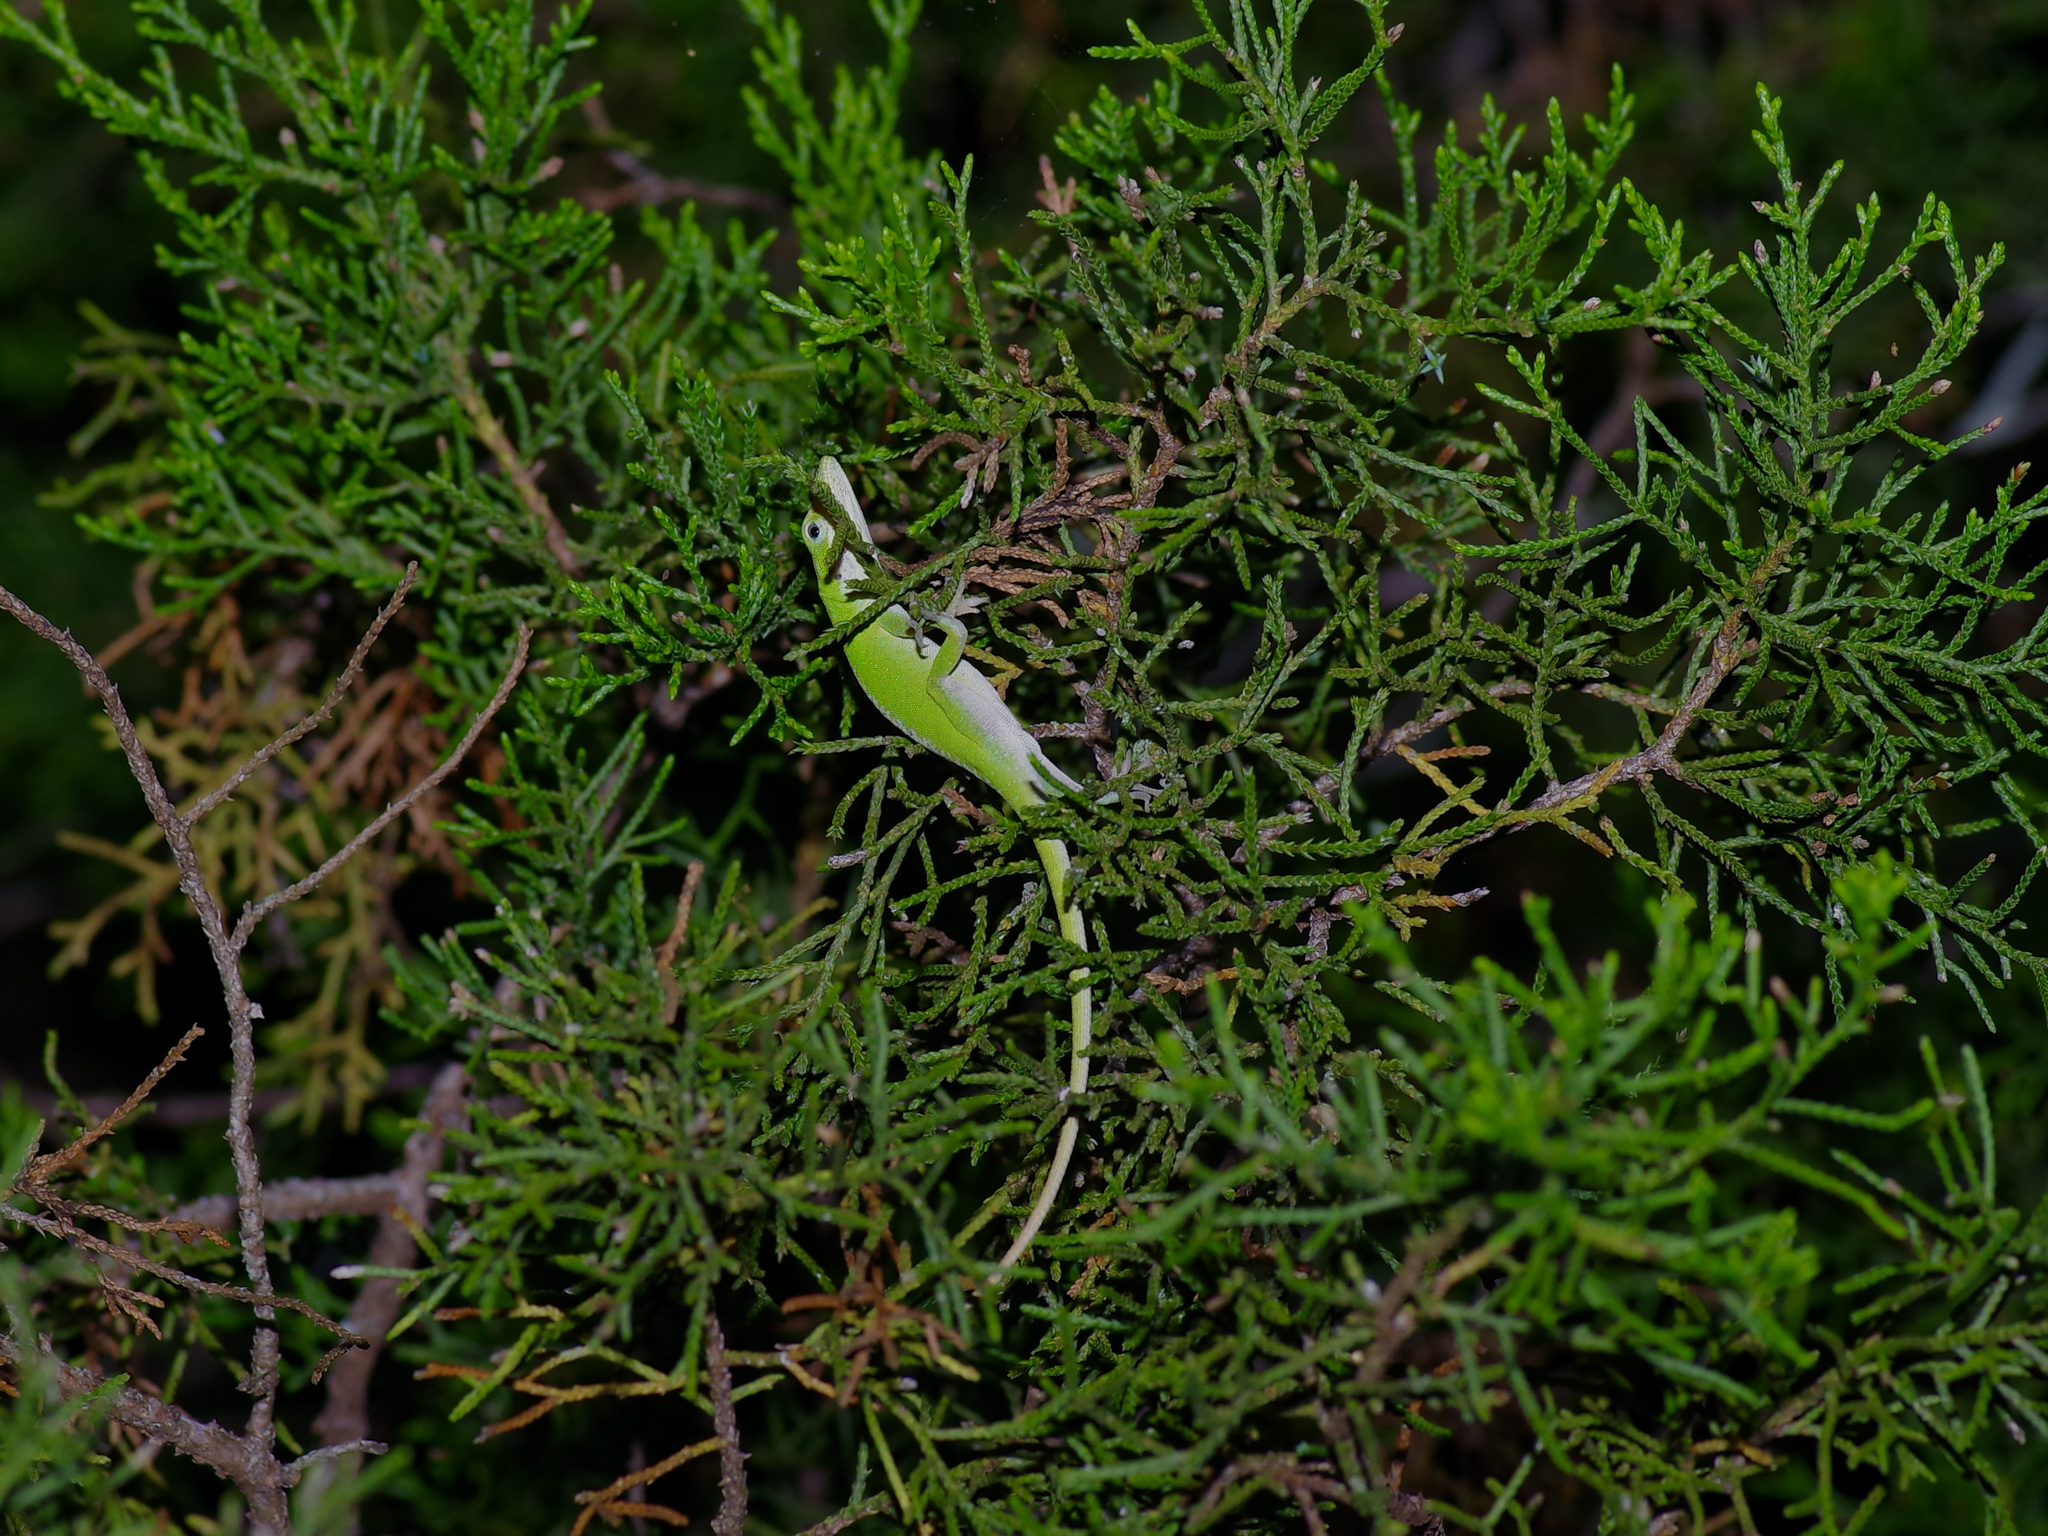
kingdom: Animalia
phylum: Chordata
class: Squamata
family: Dactyloidae
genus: Anolis
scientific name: Anolis carolinensis
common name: Green anole
